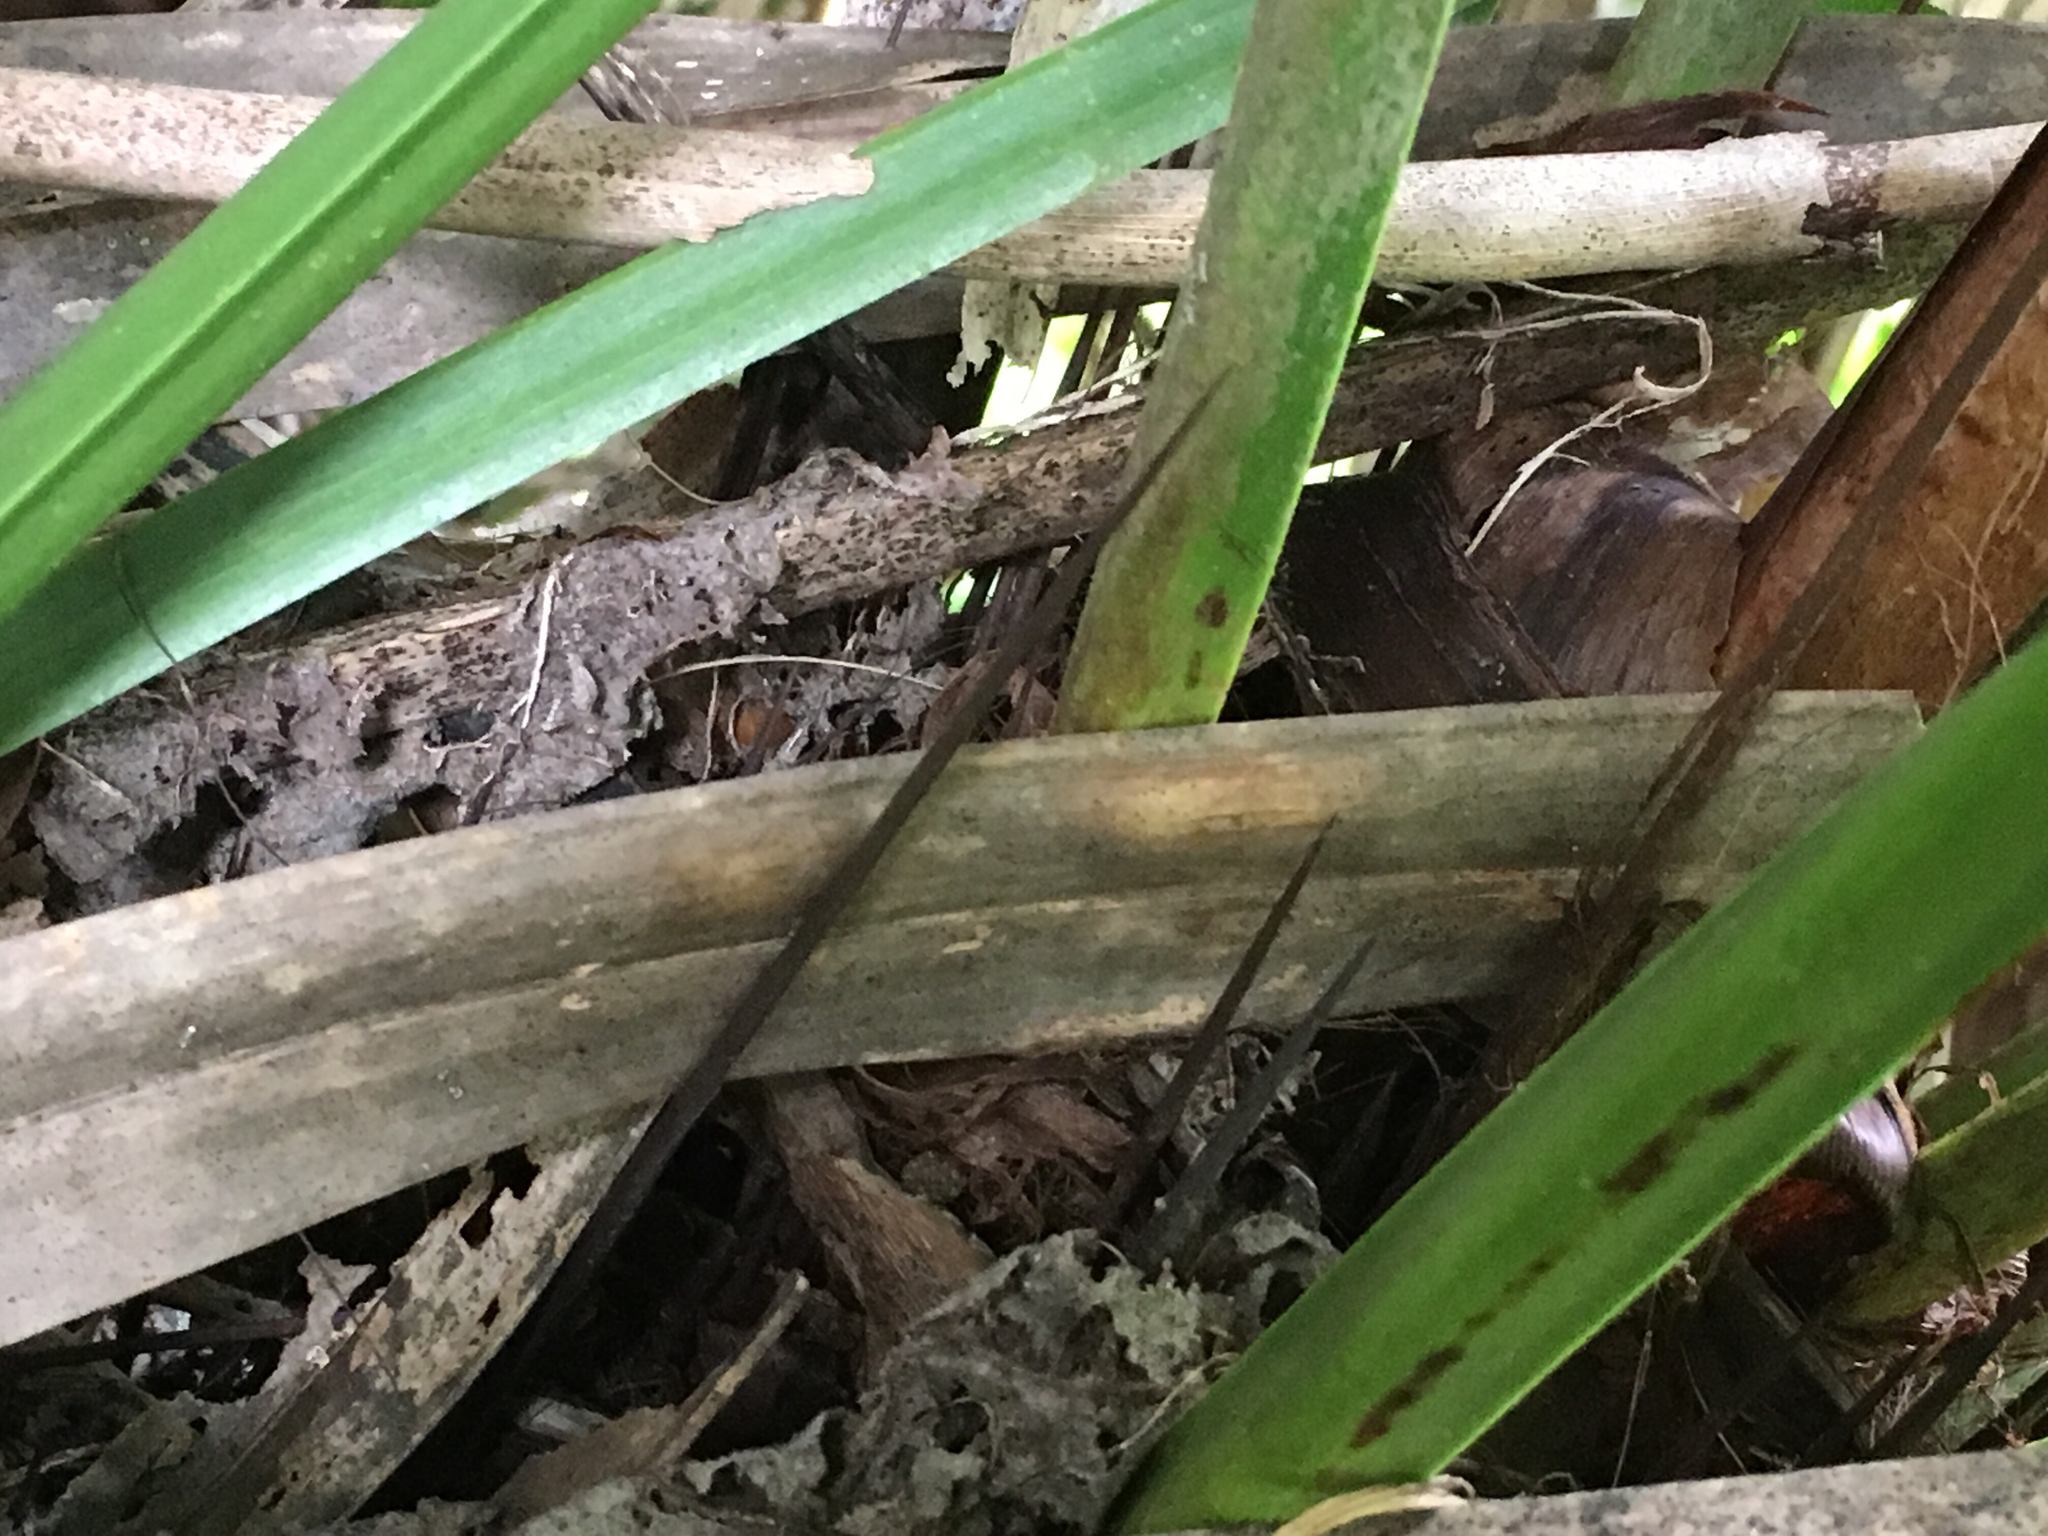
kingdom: Plantae
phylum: Tracheophyta
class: Liliopsida
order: Arecales
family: Arecaceae
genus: Rhapidophyllum
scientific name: Rhapidophyllum hystrix
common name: Porcupine palm
